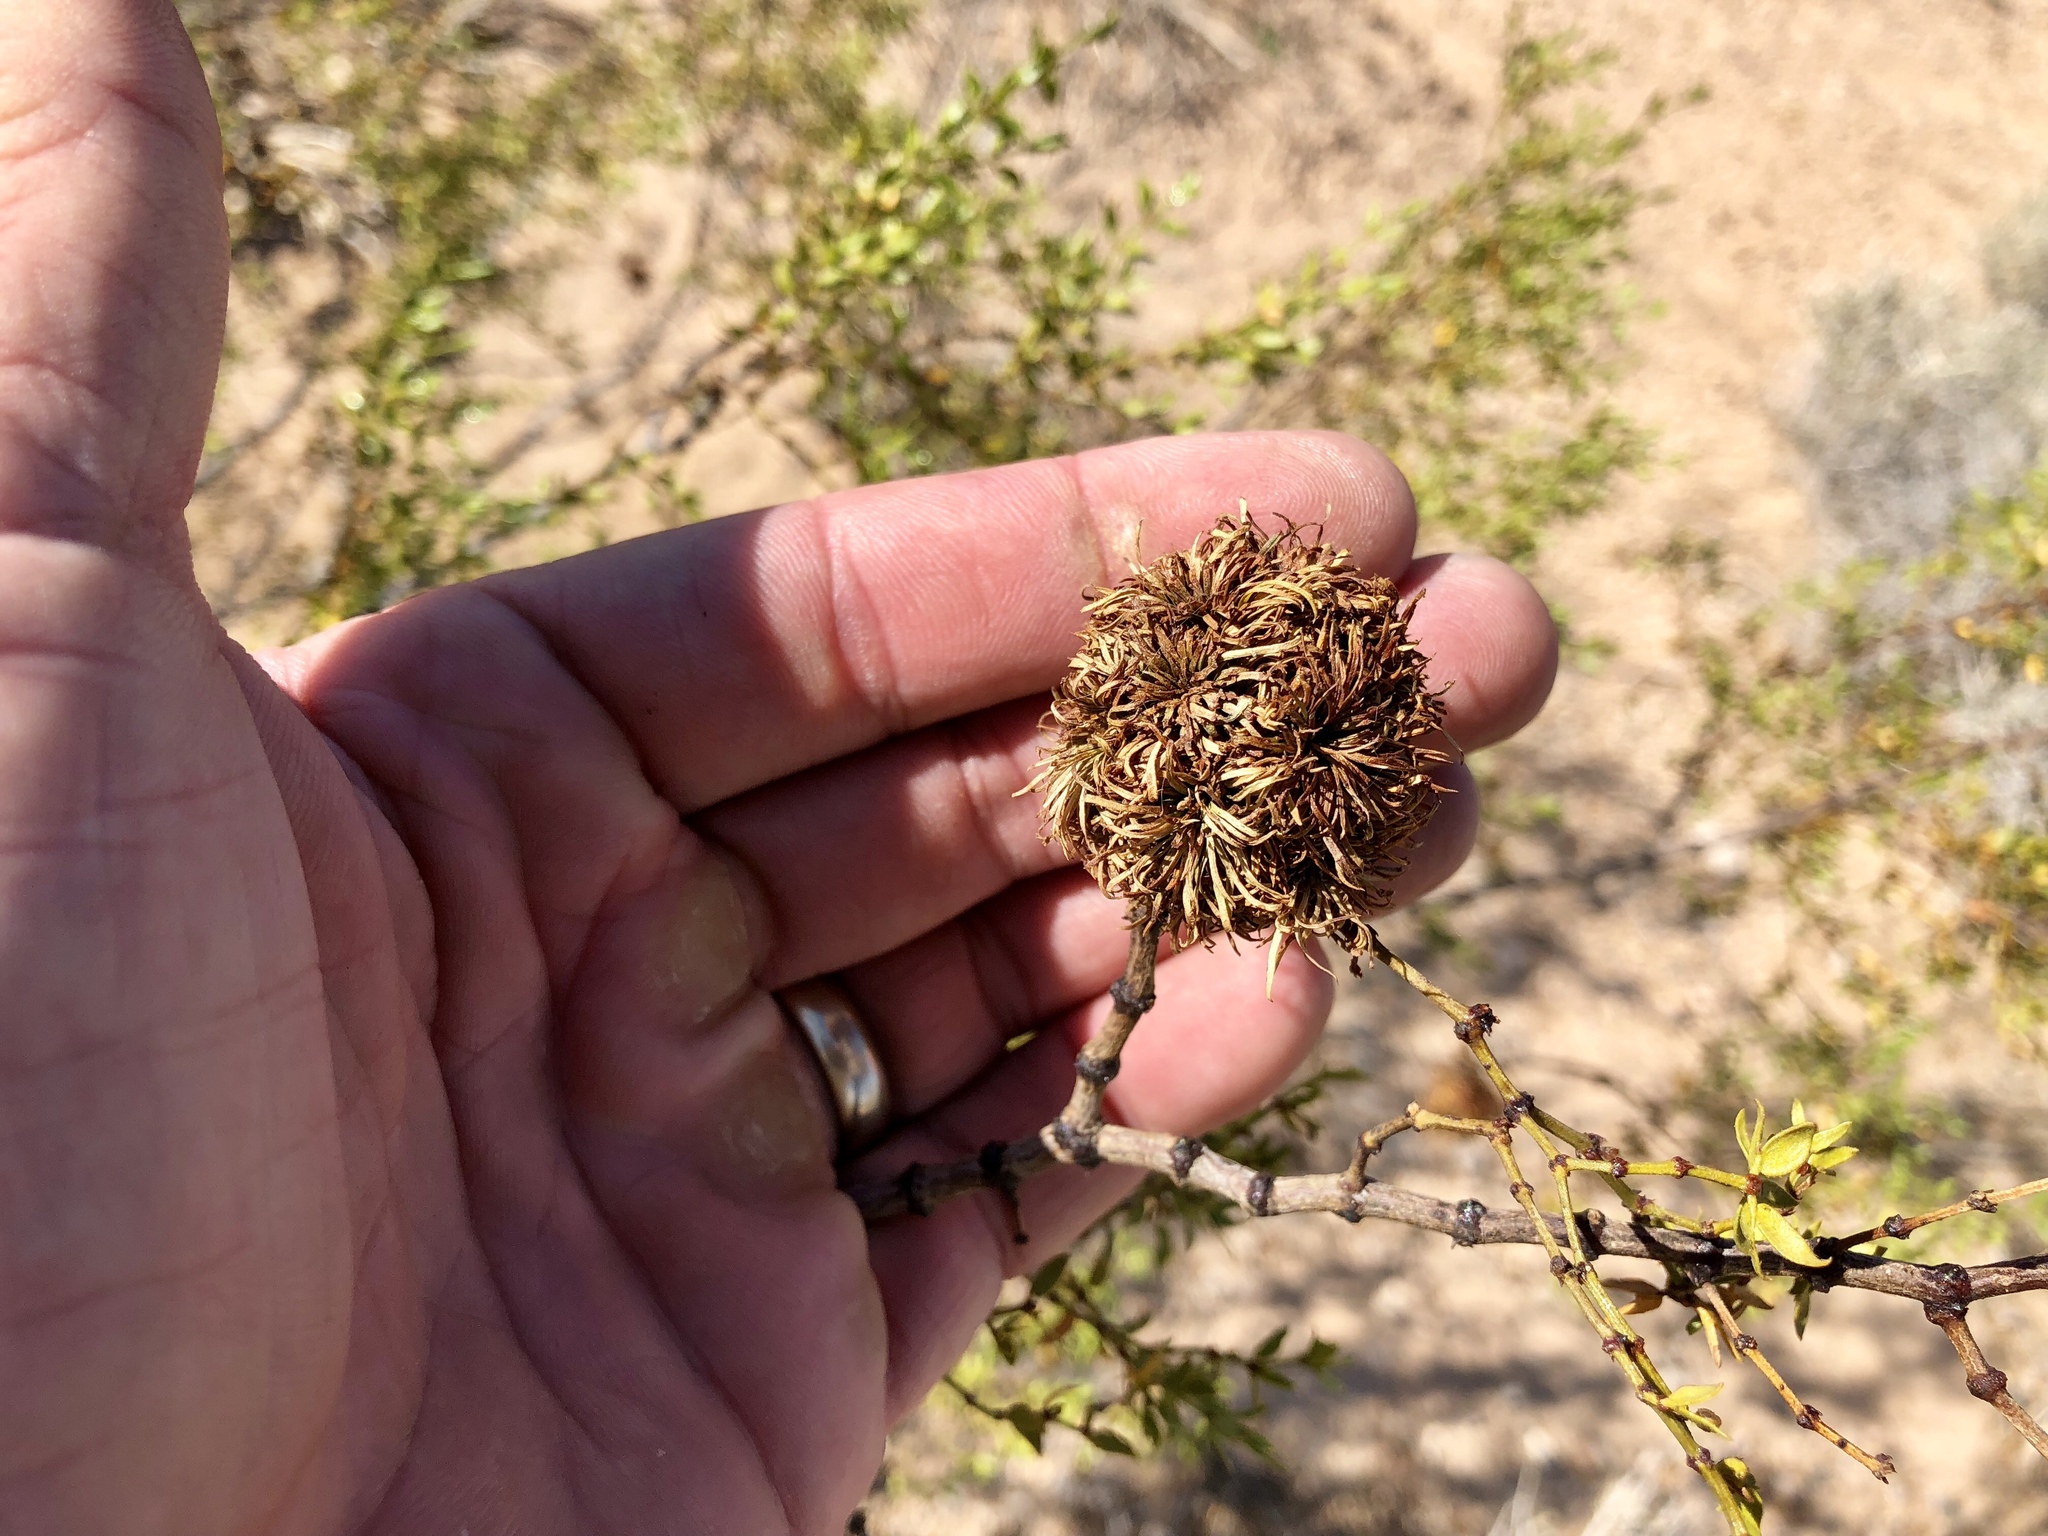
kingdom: Animalia
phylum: Arthropoda
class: Insecta
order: Diptera
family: Cecidomyiidae
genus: Asphondylia
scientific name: Asphondylia auripila
